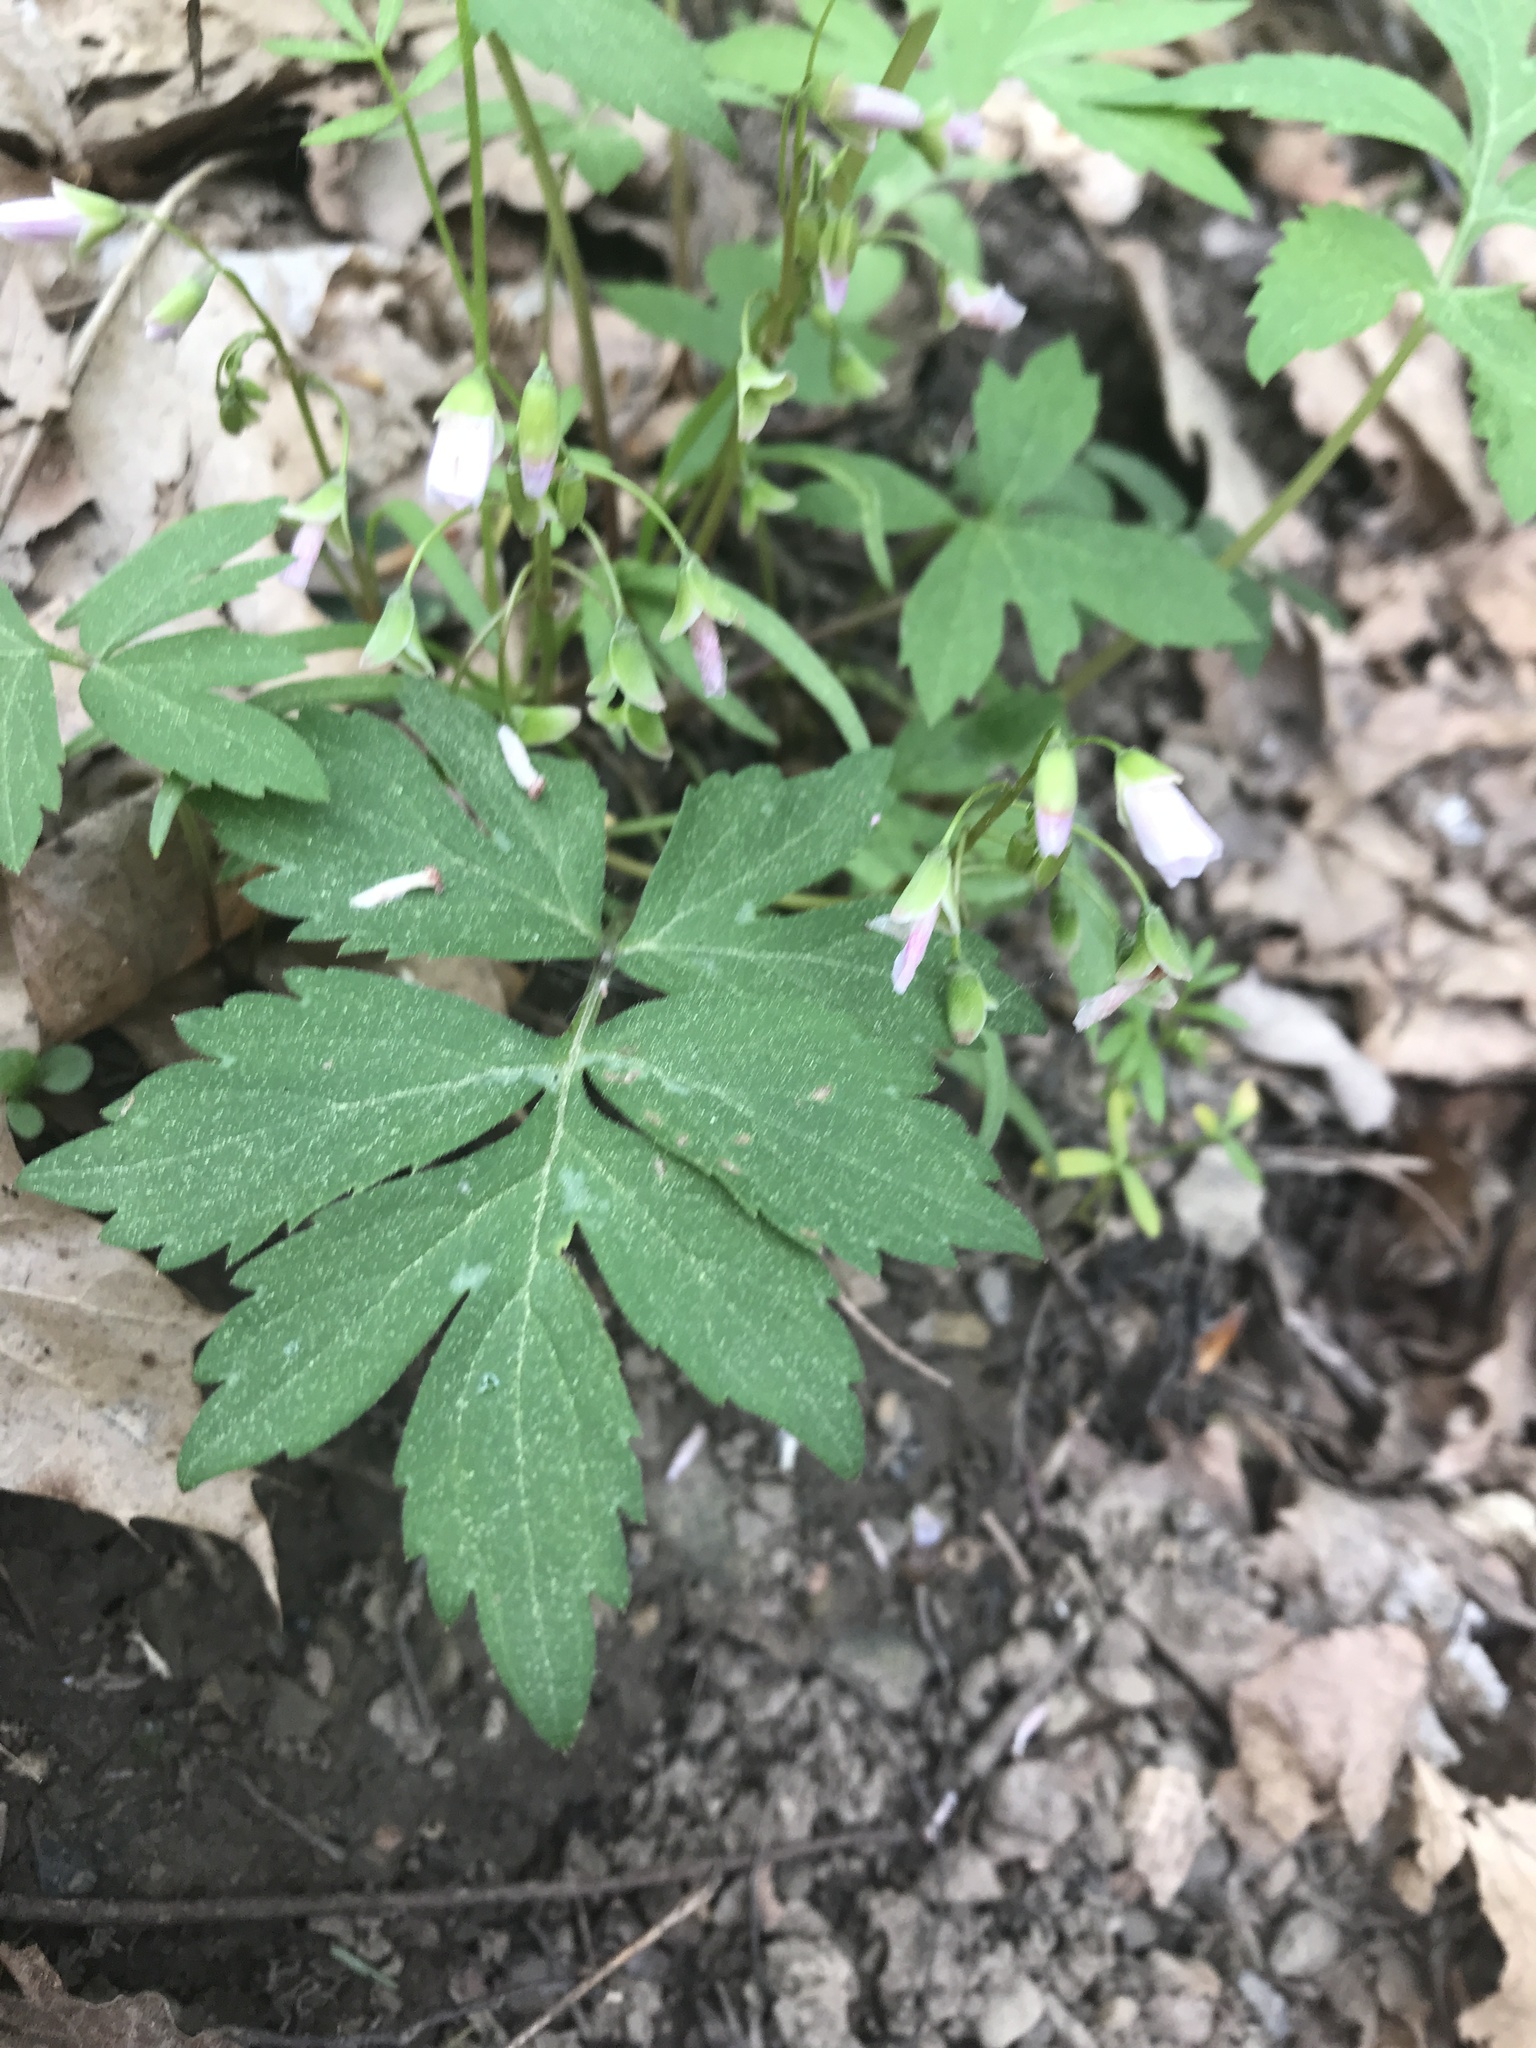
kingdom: Plantae
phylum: Tracheophyta
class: Magnoliopsida
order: Boraginales
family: Hydrophyllaceae
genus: Hydrophyllum
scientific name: Hydrophyllum virginianum
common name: Virginia waterleaf
